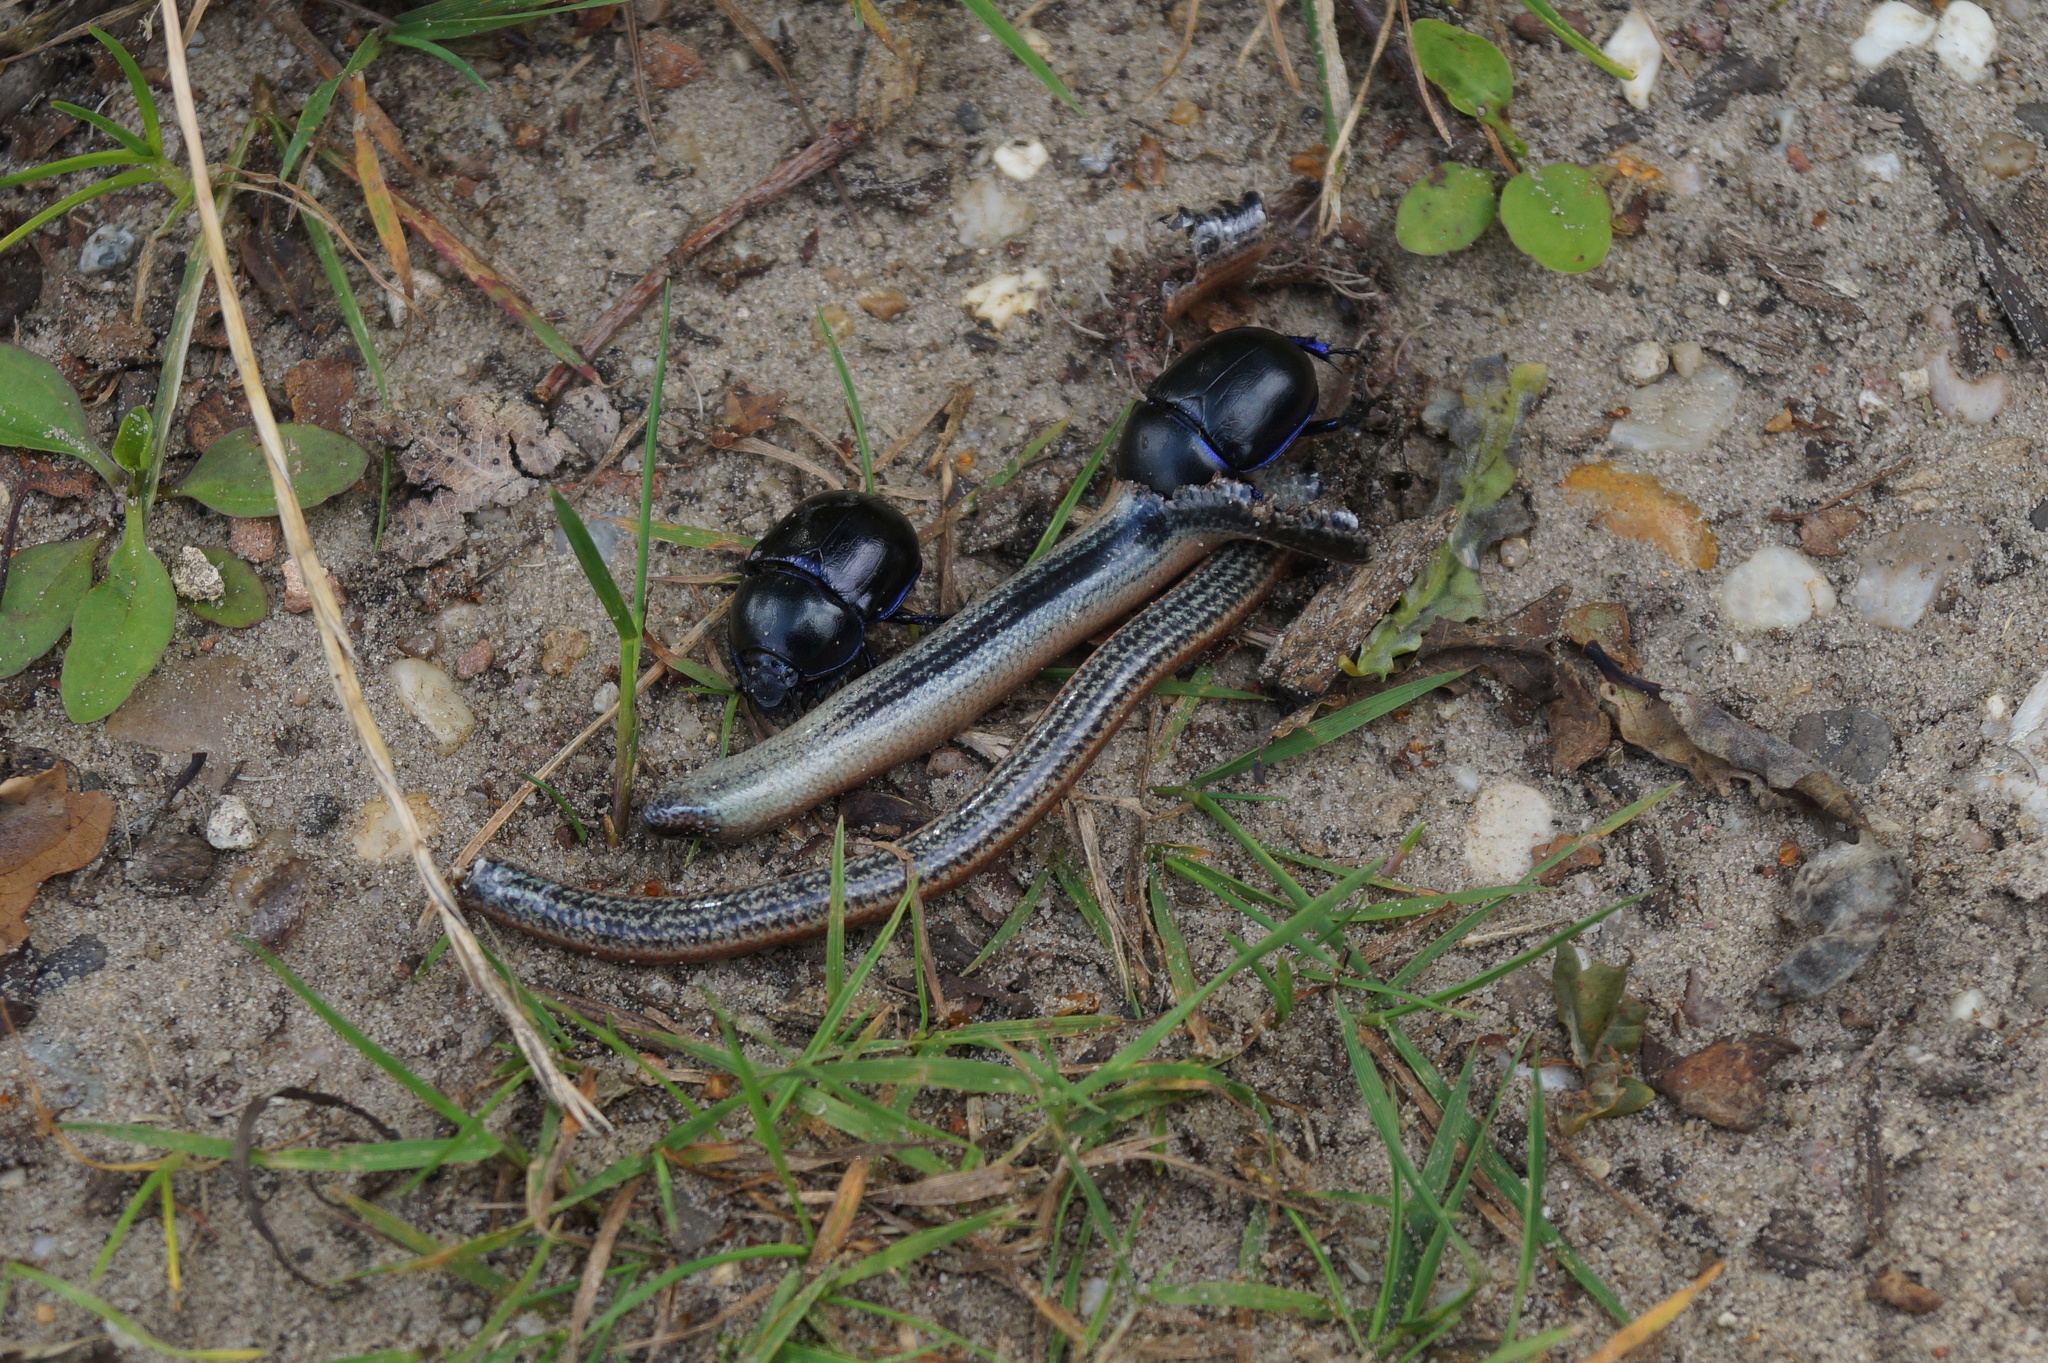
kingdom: Animalia
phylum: Chordata
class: Squamata
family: Anguidae
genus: Anguis
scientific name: Anguis fragilis
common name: Slow worm
